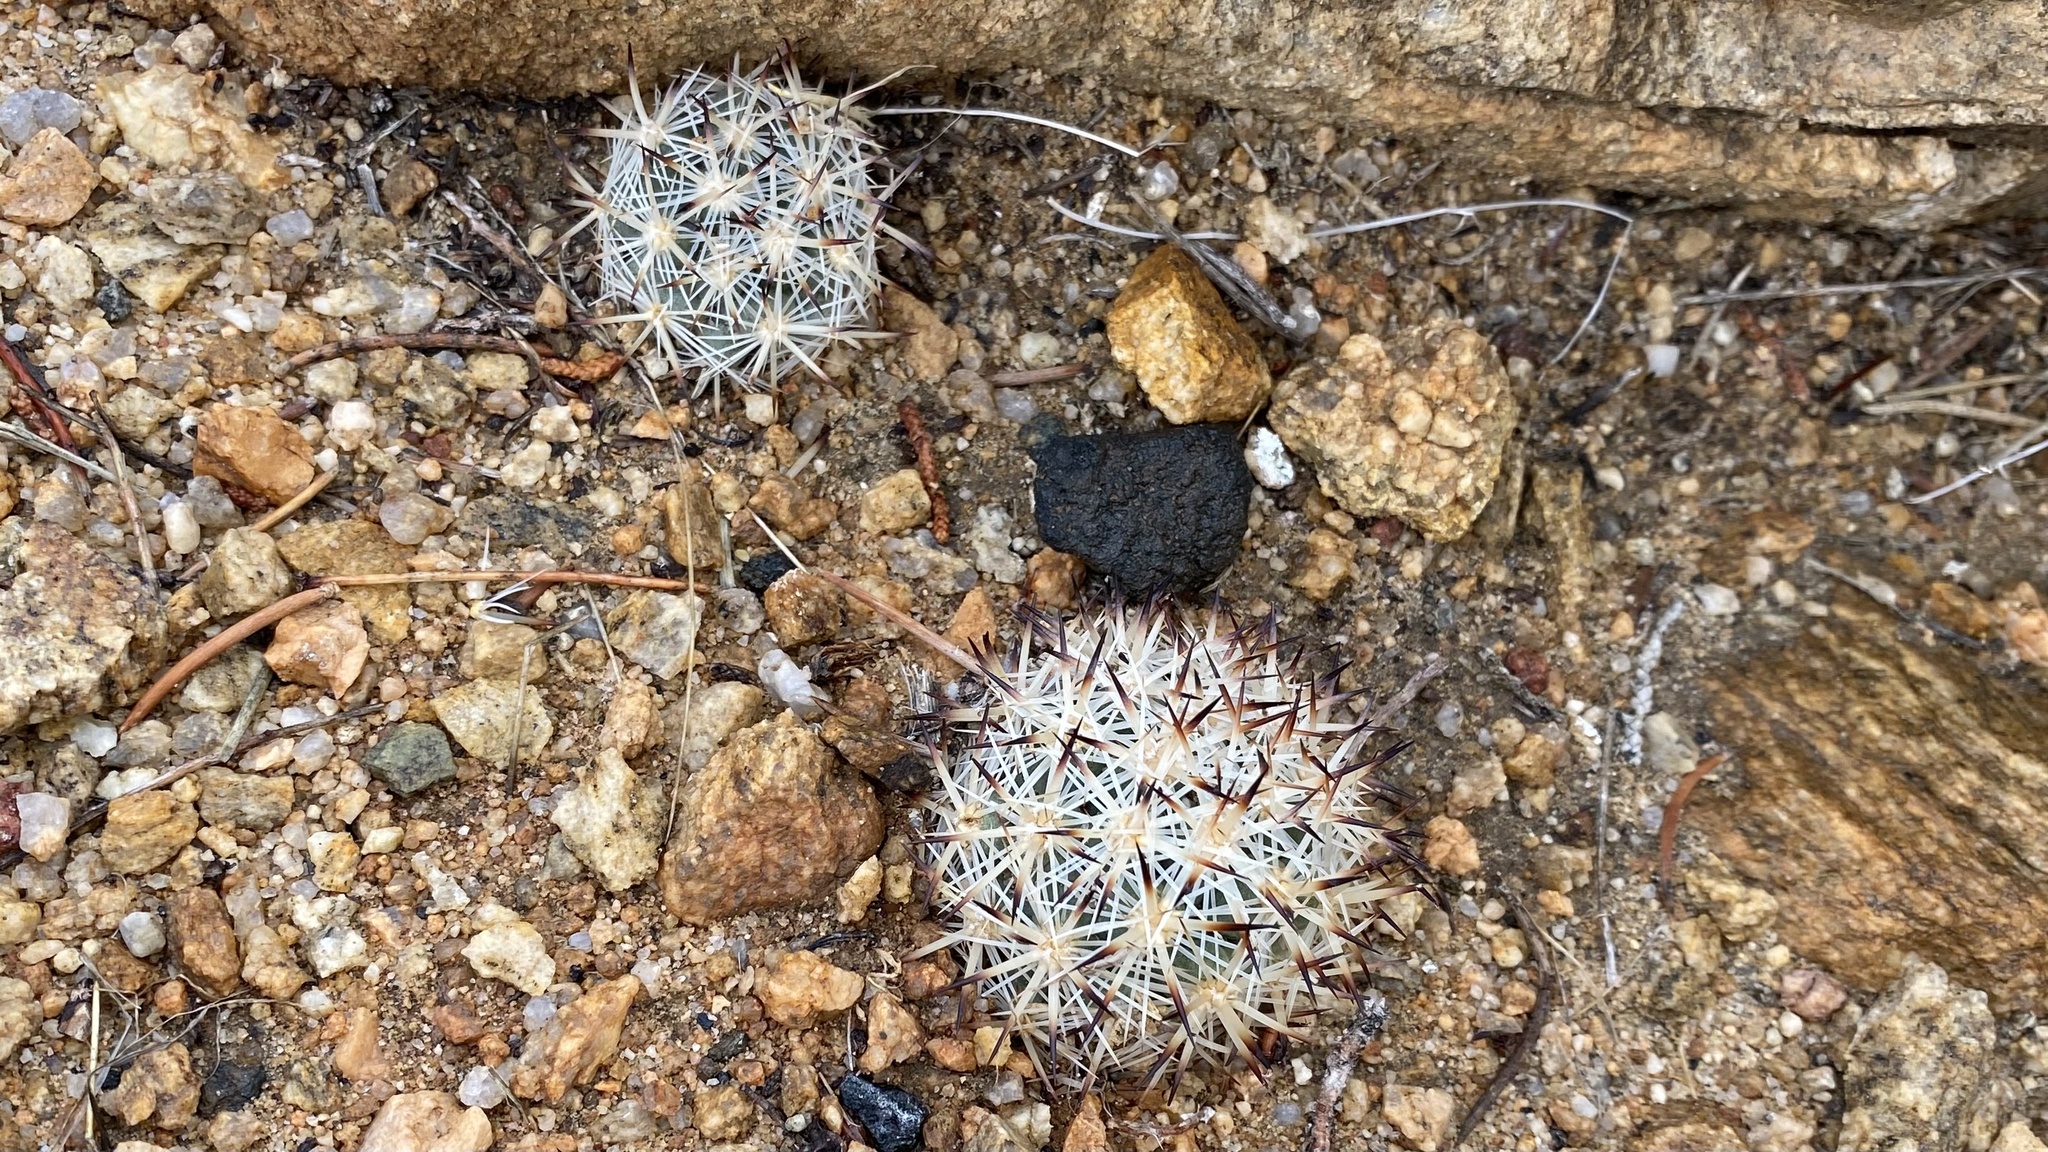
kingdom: Plantae
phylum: Tracheophyta
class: Magnoliopsida
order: Caryophyllales
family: Cactaceae
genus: Pelecyphora
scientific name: Pelecyphora alversonii
